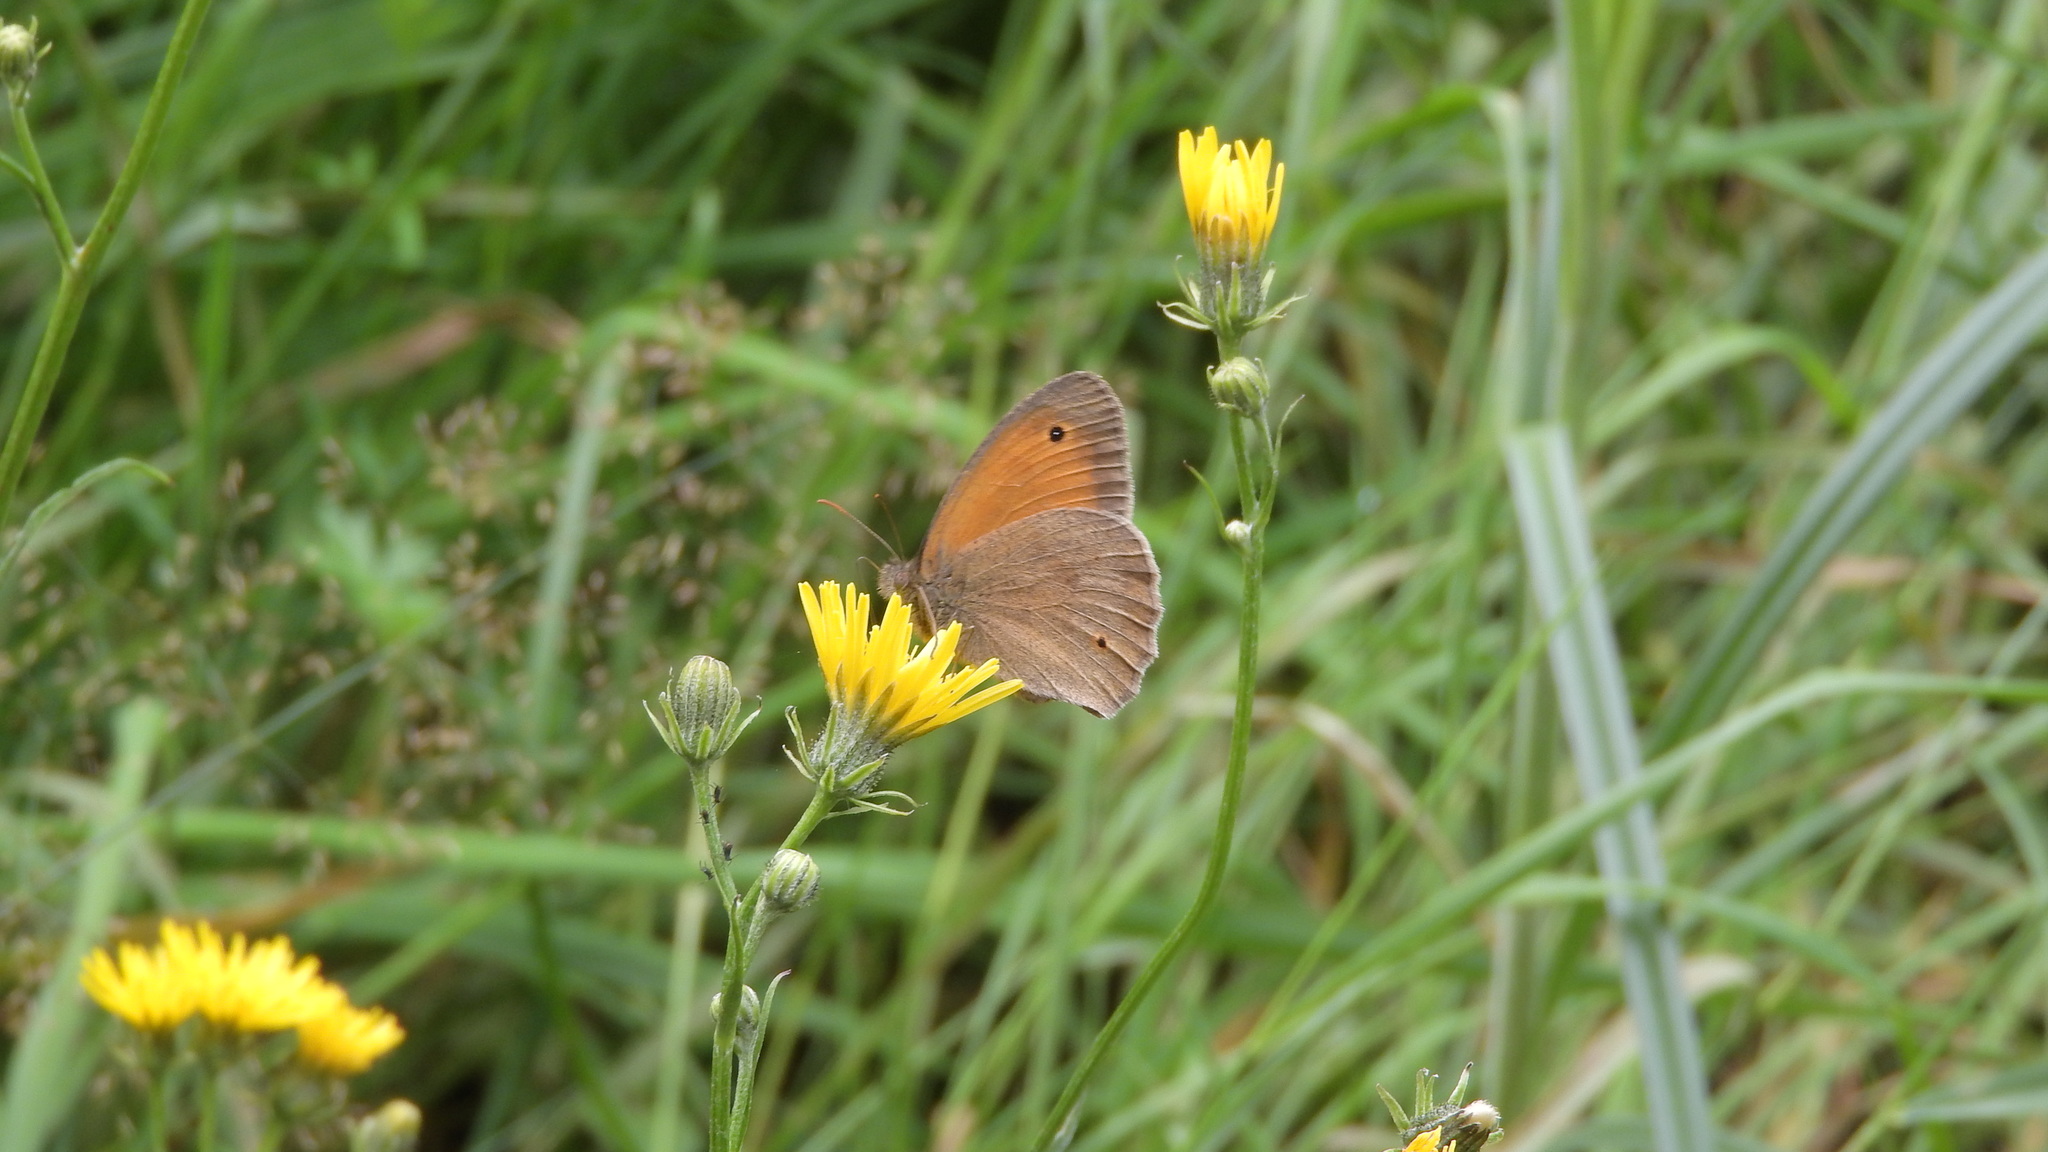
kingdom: Animalia
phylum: Arthropoda
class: Insecta
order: Lepidoptera
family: Nymphalidae
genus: Maniola
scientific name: Maniola jurtina
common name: Meadow brown
